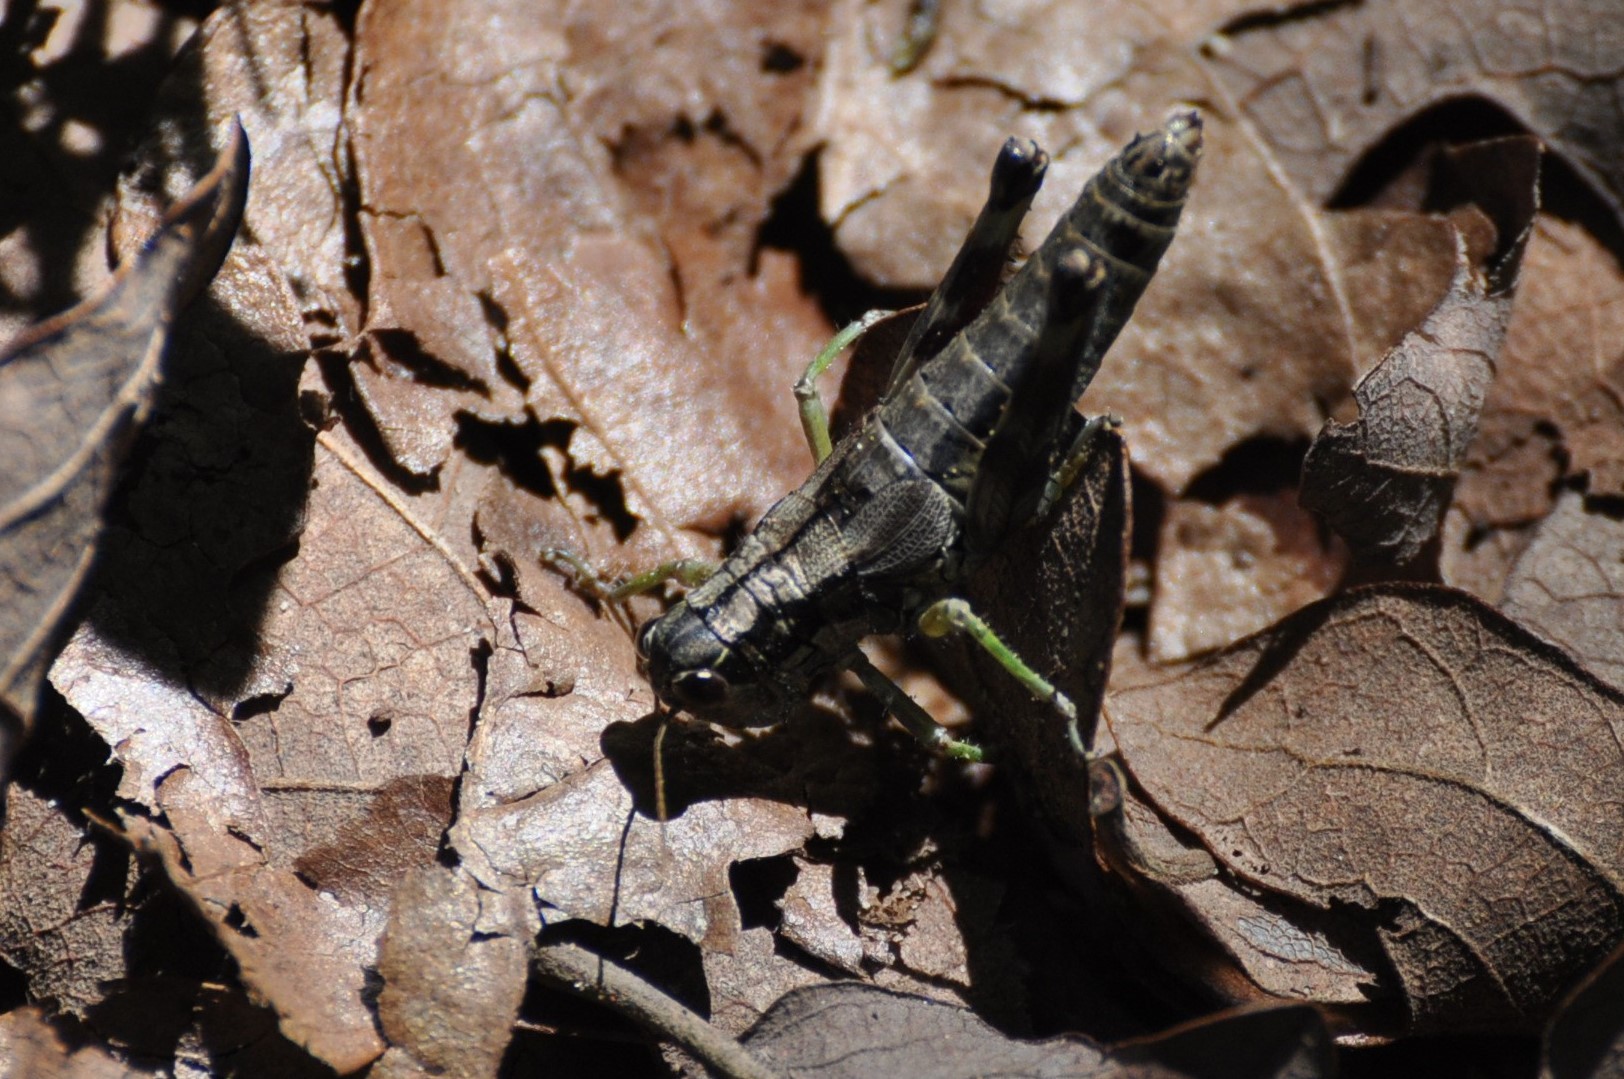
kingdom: Animalia
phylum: Arthropoda
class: Insecta
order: Orthoptera
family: Acrididae
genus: Dendrotettix
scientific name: Dendrotettix quercus
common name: Post oak grasshopper
